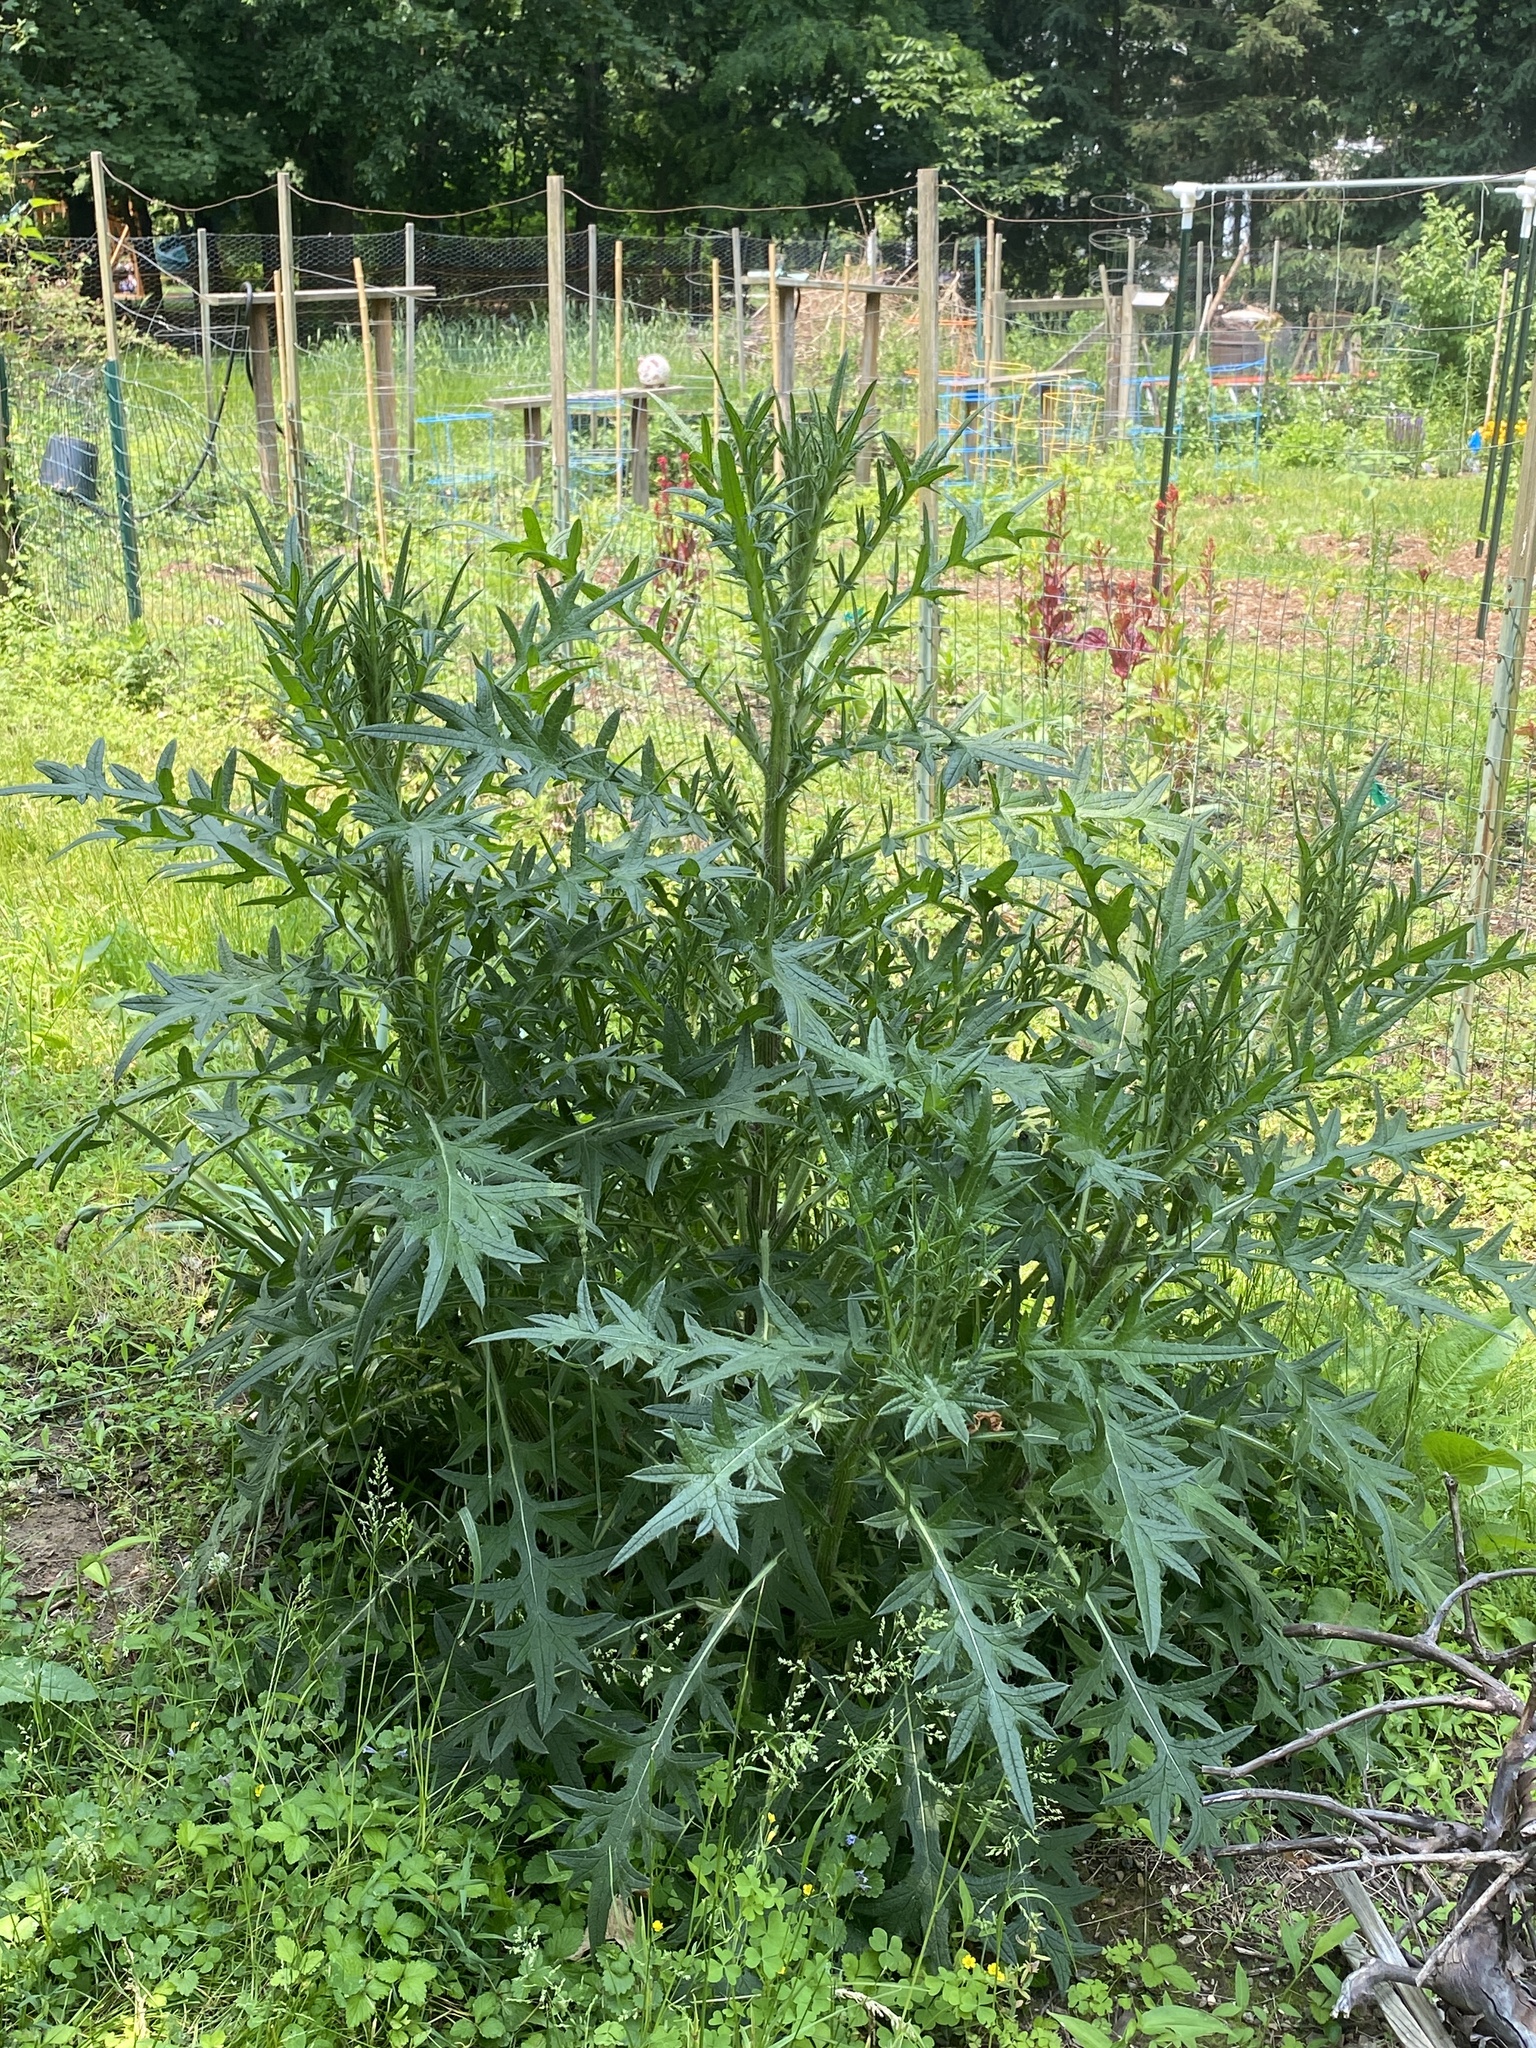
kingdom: Plantae
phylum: Tracheophyta
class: Magnoliopsida
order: Asterales
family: Asteraceae
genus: Cirsium
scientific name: Cirsium vulgare
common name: Bull thistle
